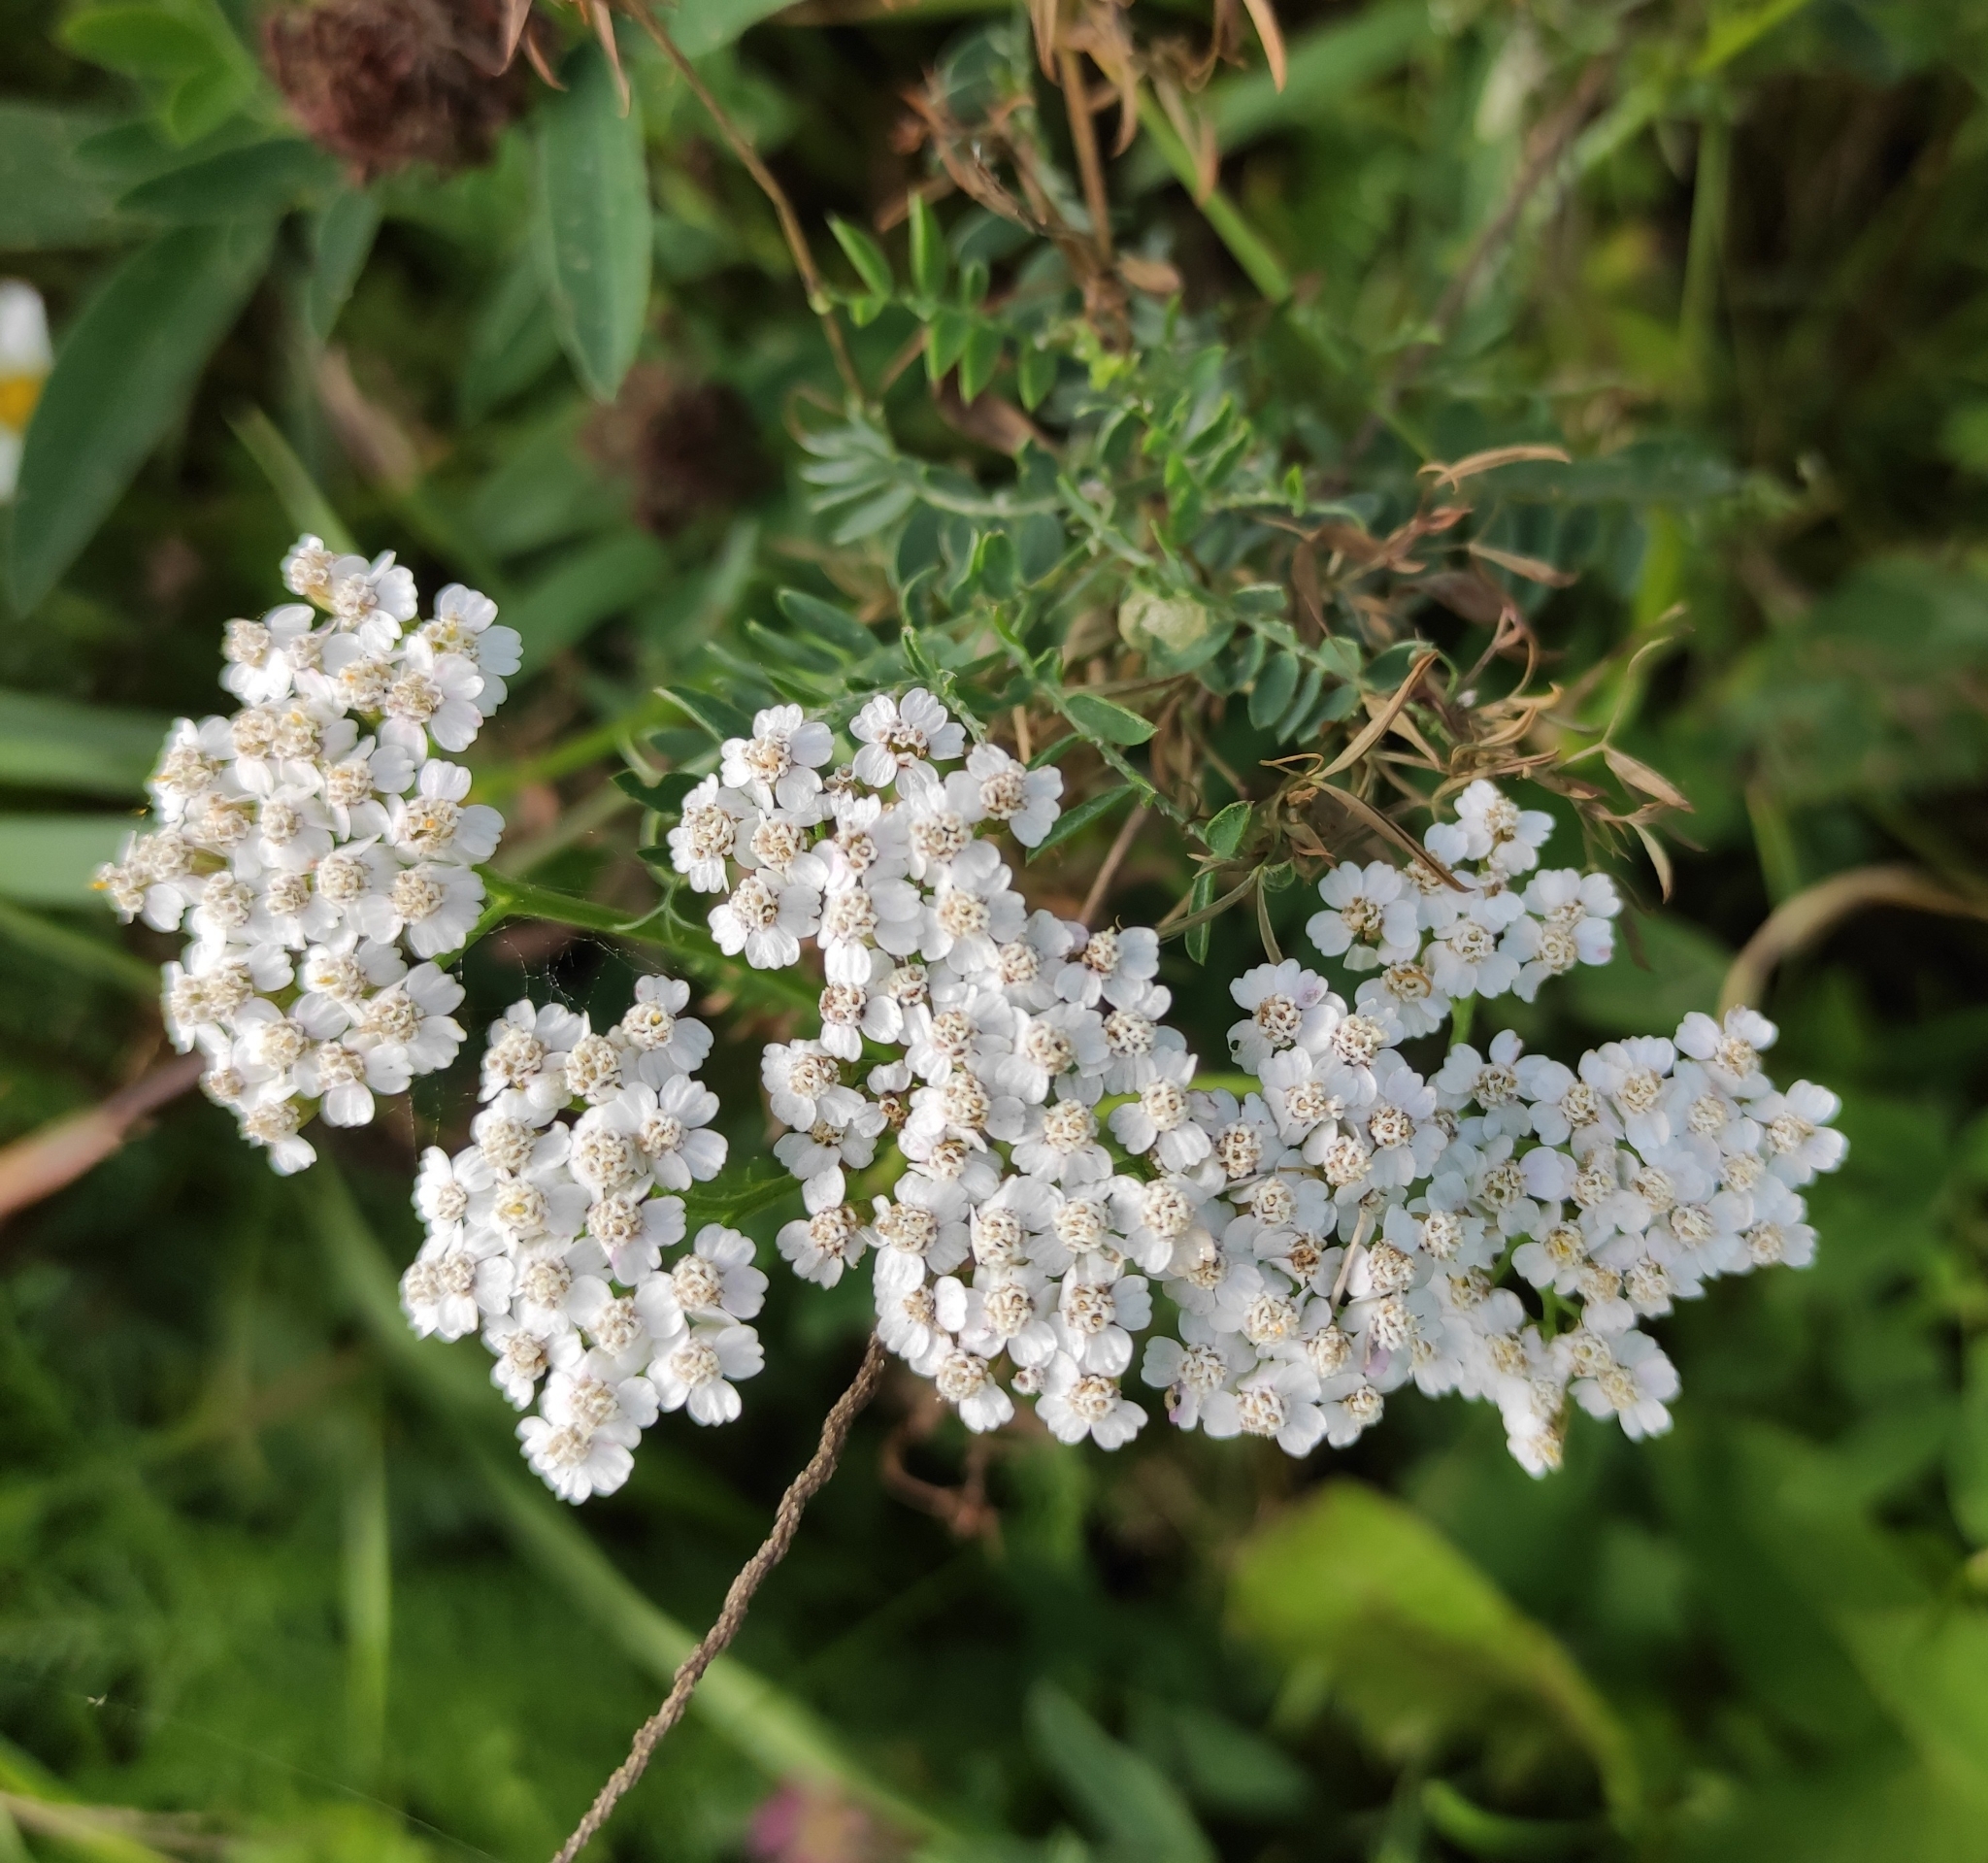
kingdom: Plantae
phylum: Tracheophyta
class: Magnoliopsida
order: Asterales
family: Asteraceae
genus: Achillea
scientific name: Achillea millefolium
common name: Yarrow
